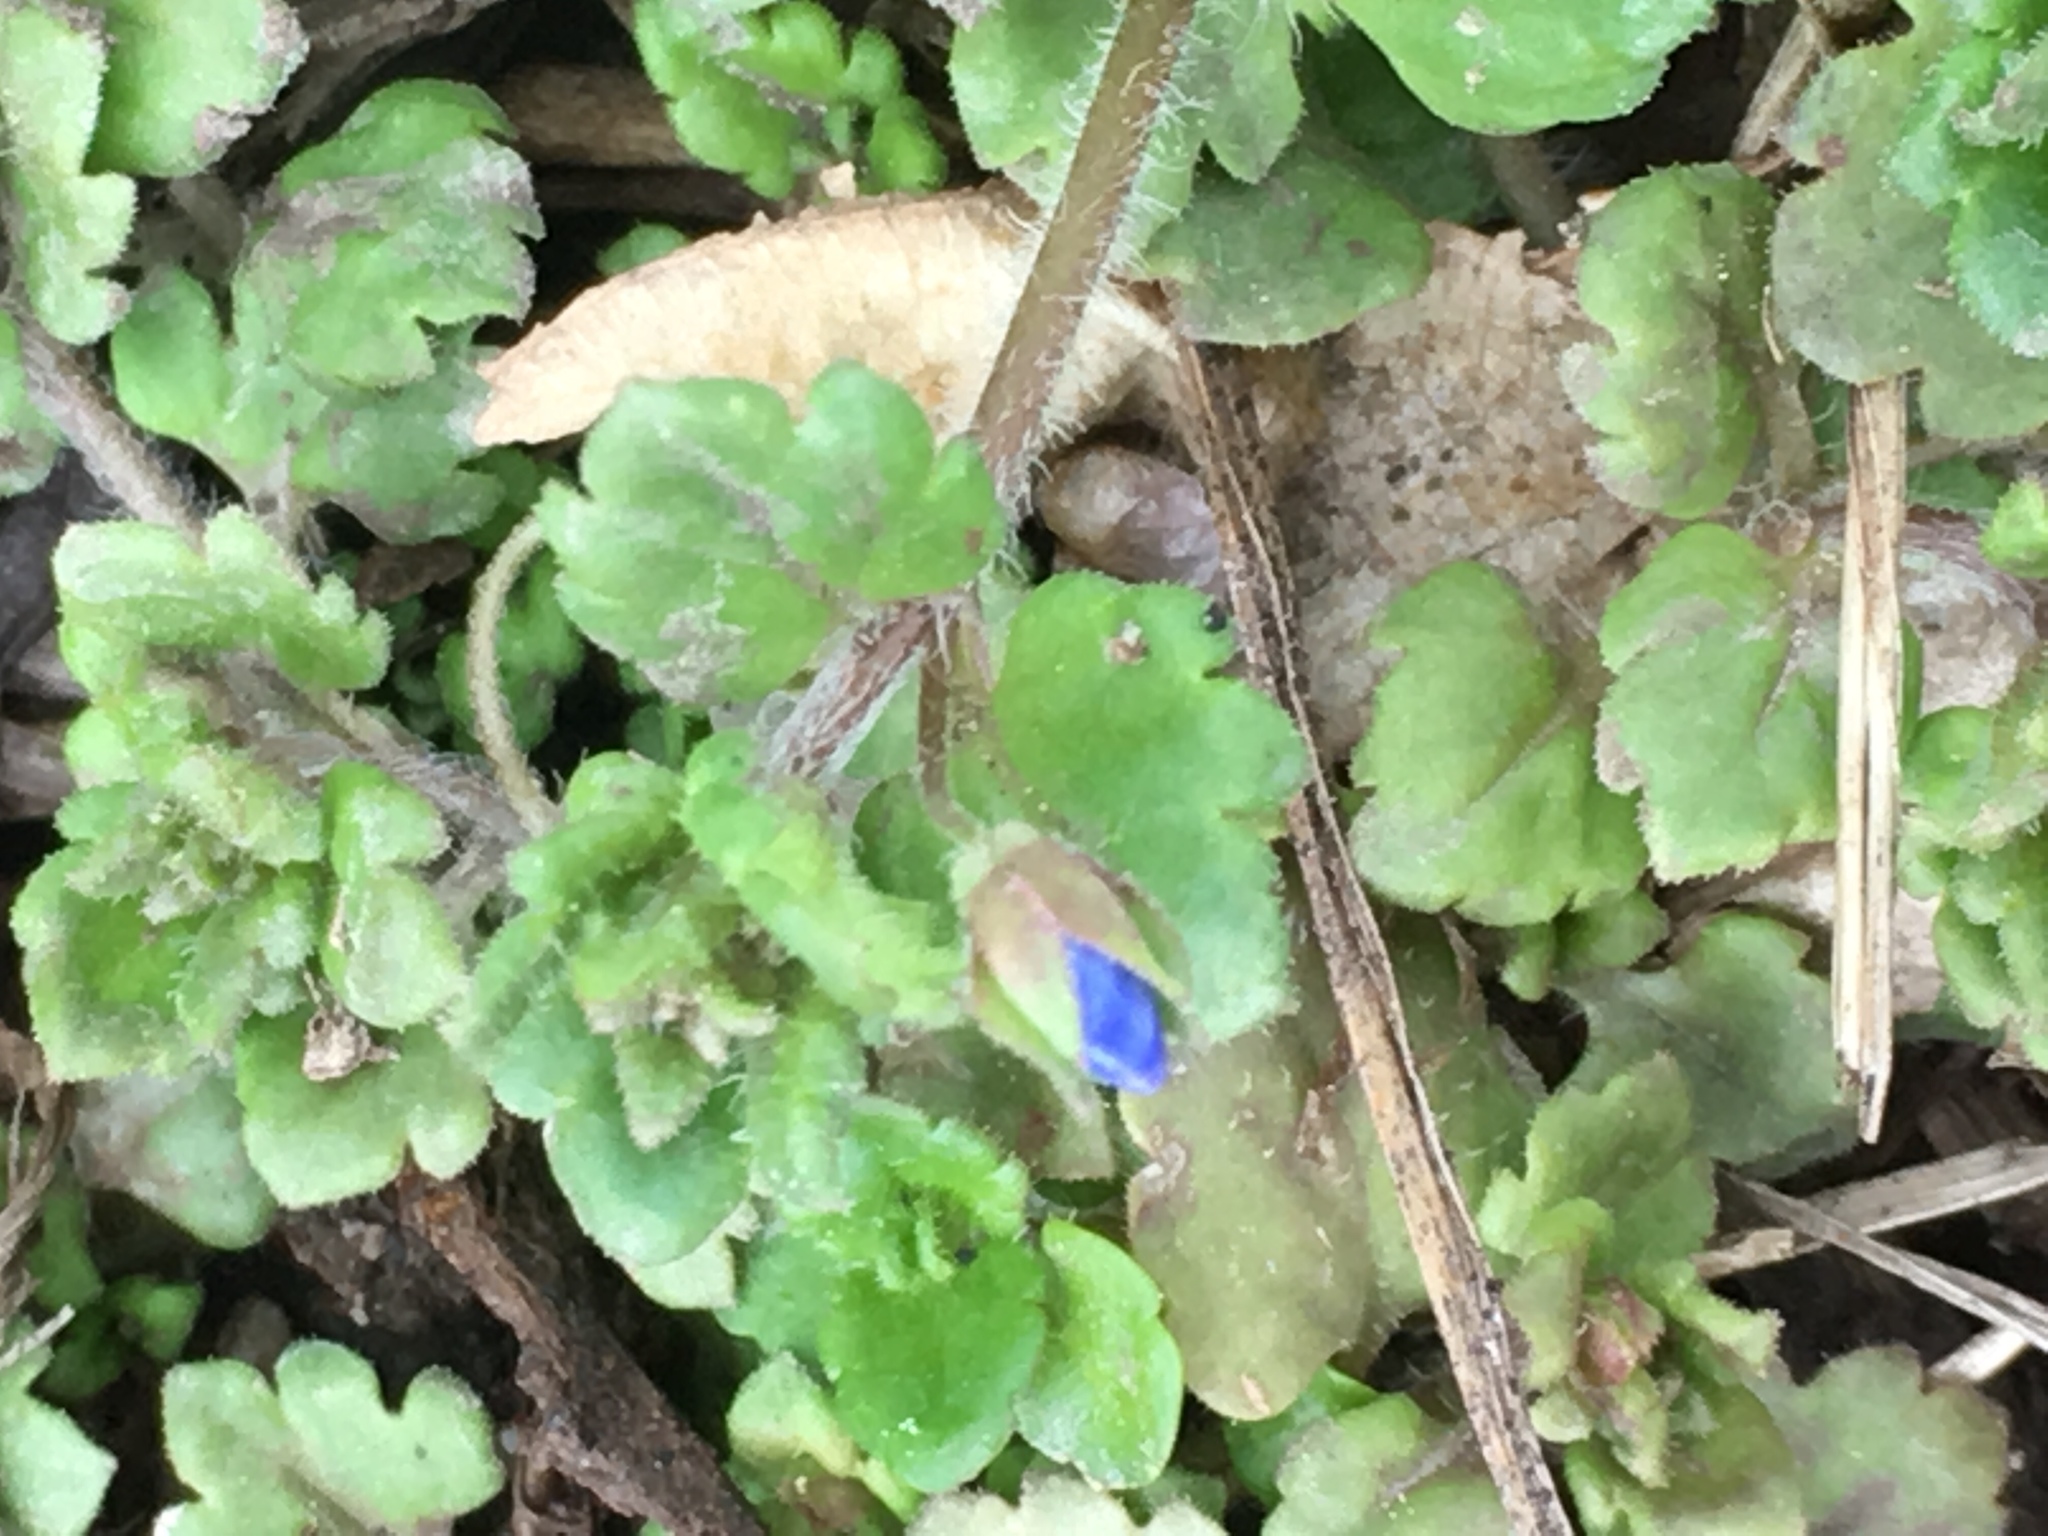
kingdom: Plantae
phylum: Tracheophyta
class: Magnoliopsida
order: Lamiales
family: Plantaginaceae
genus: Veronica
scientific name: Veronica persica
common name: Common field-speedwell
